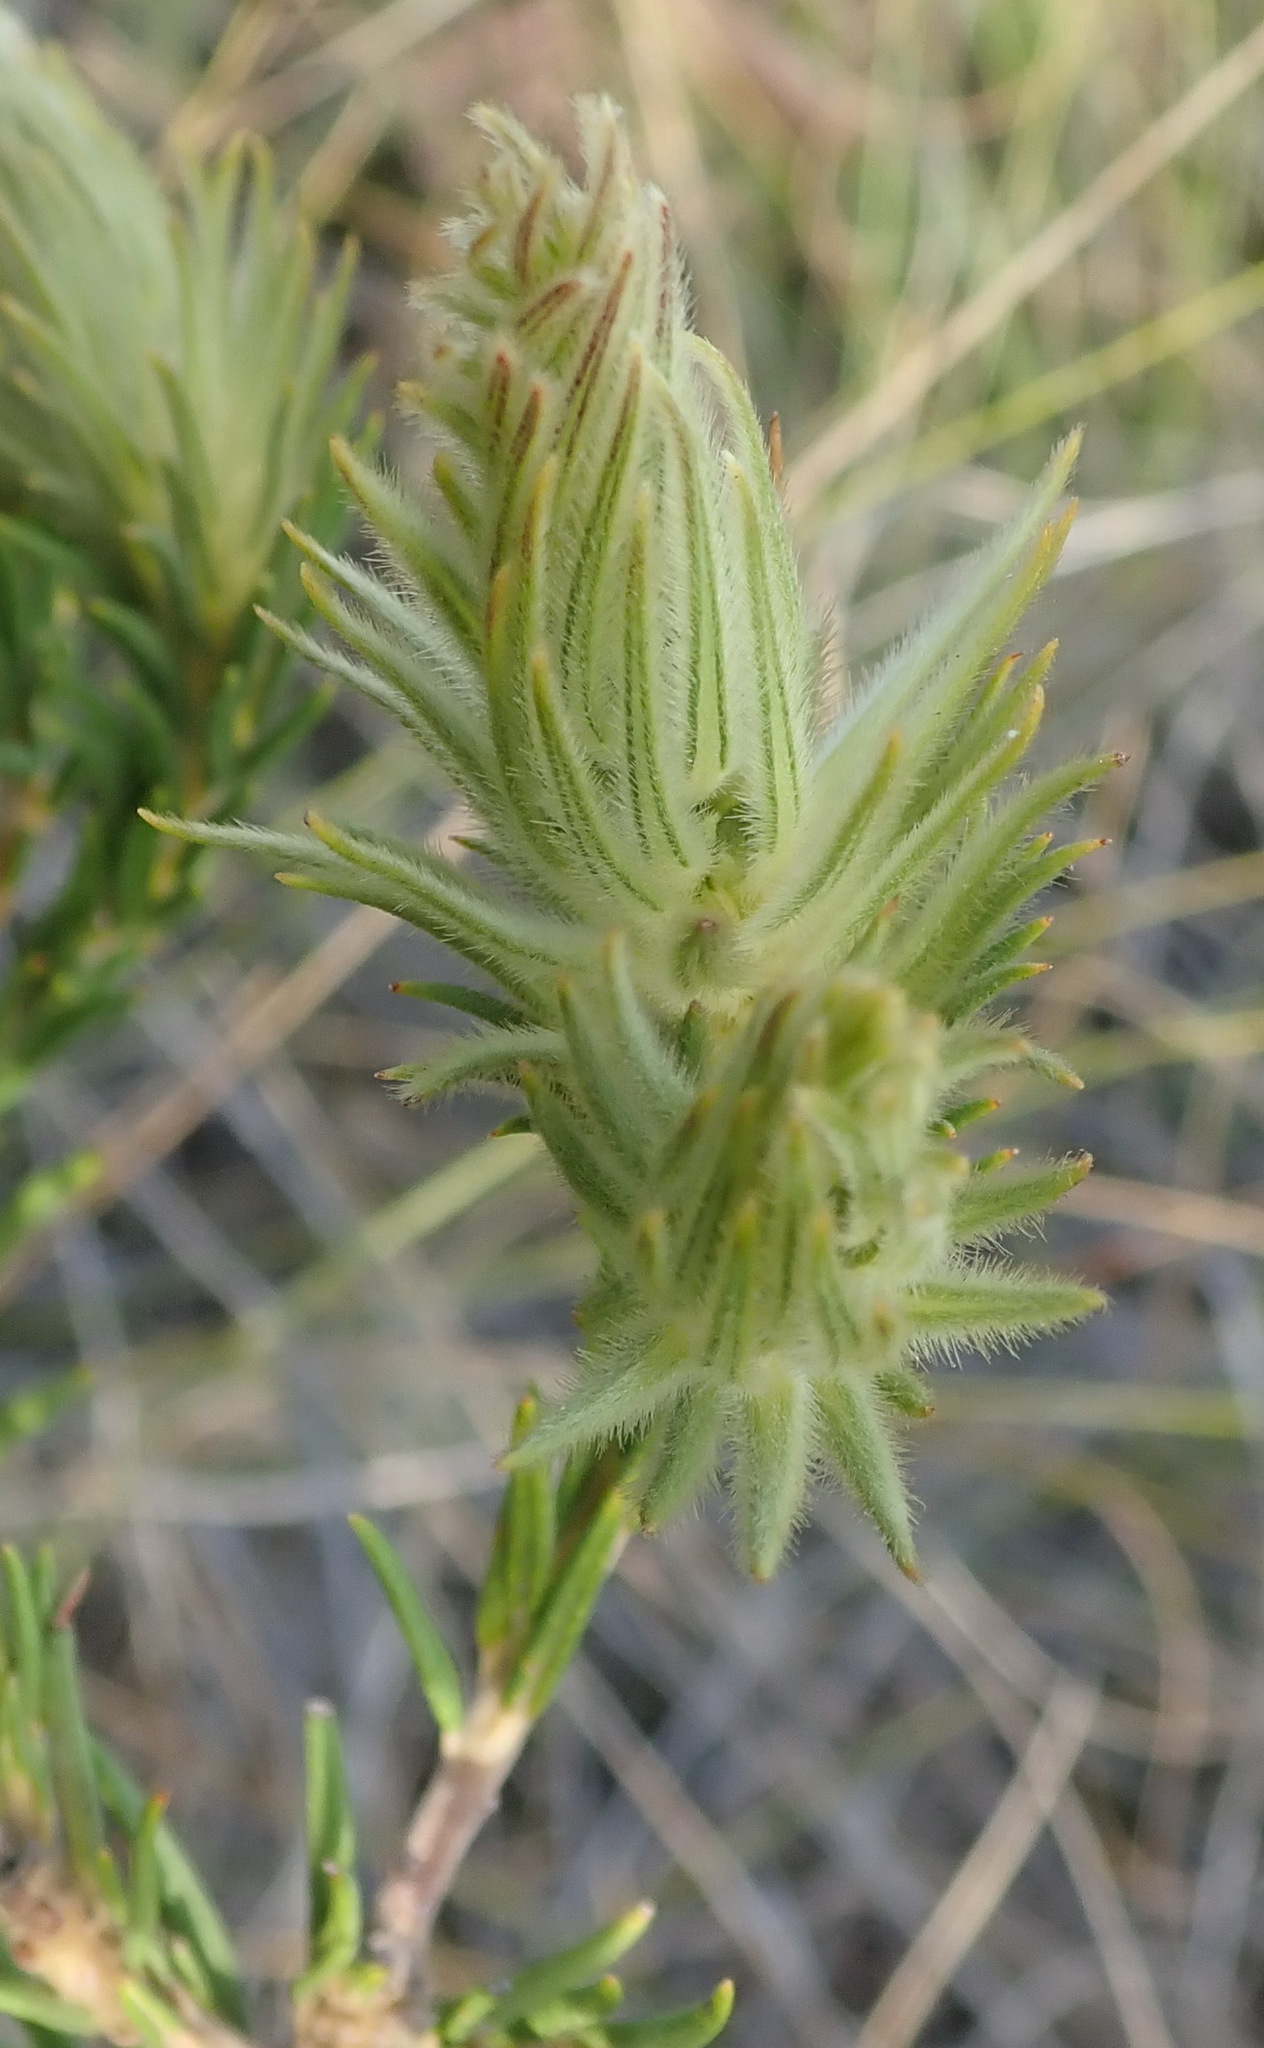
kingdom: Plantae
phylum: Tracheophyta
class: Magnoliopsida
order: Rosales
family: Rhamnaceae
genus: Phylica
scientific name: Phylica plumosa
